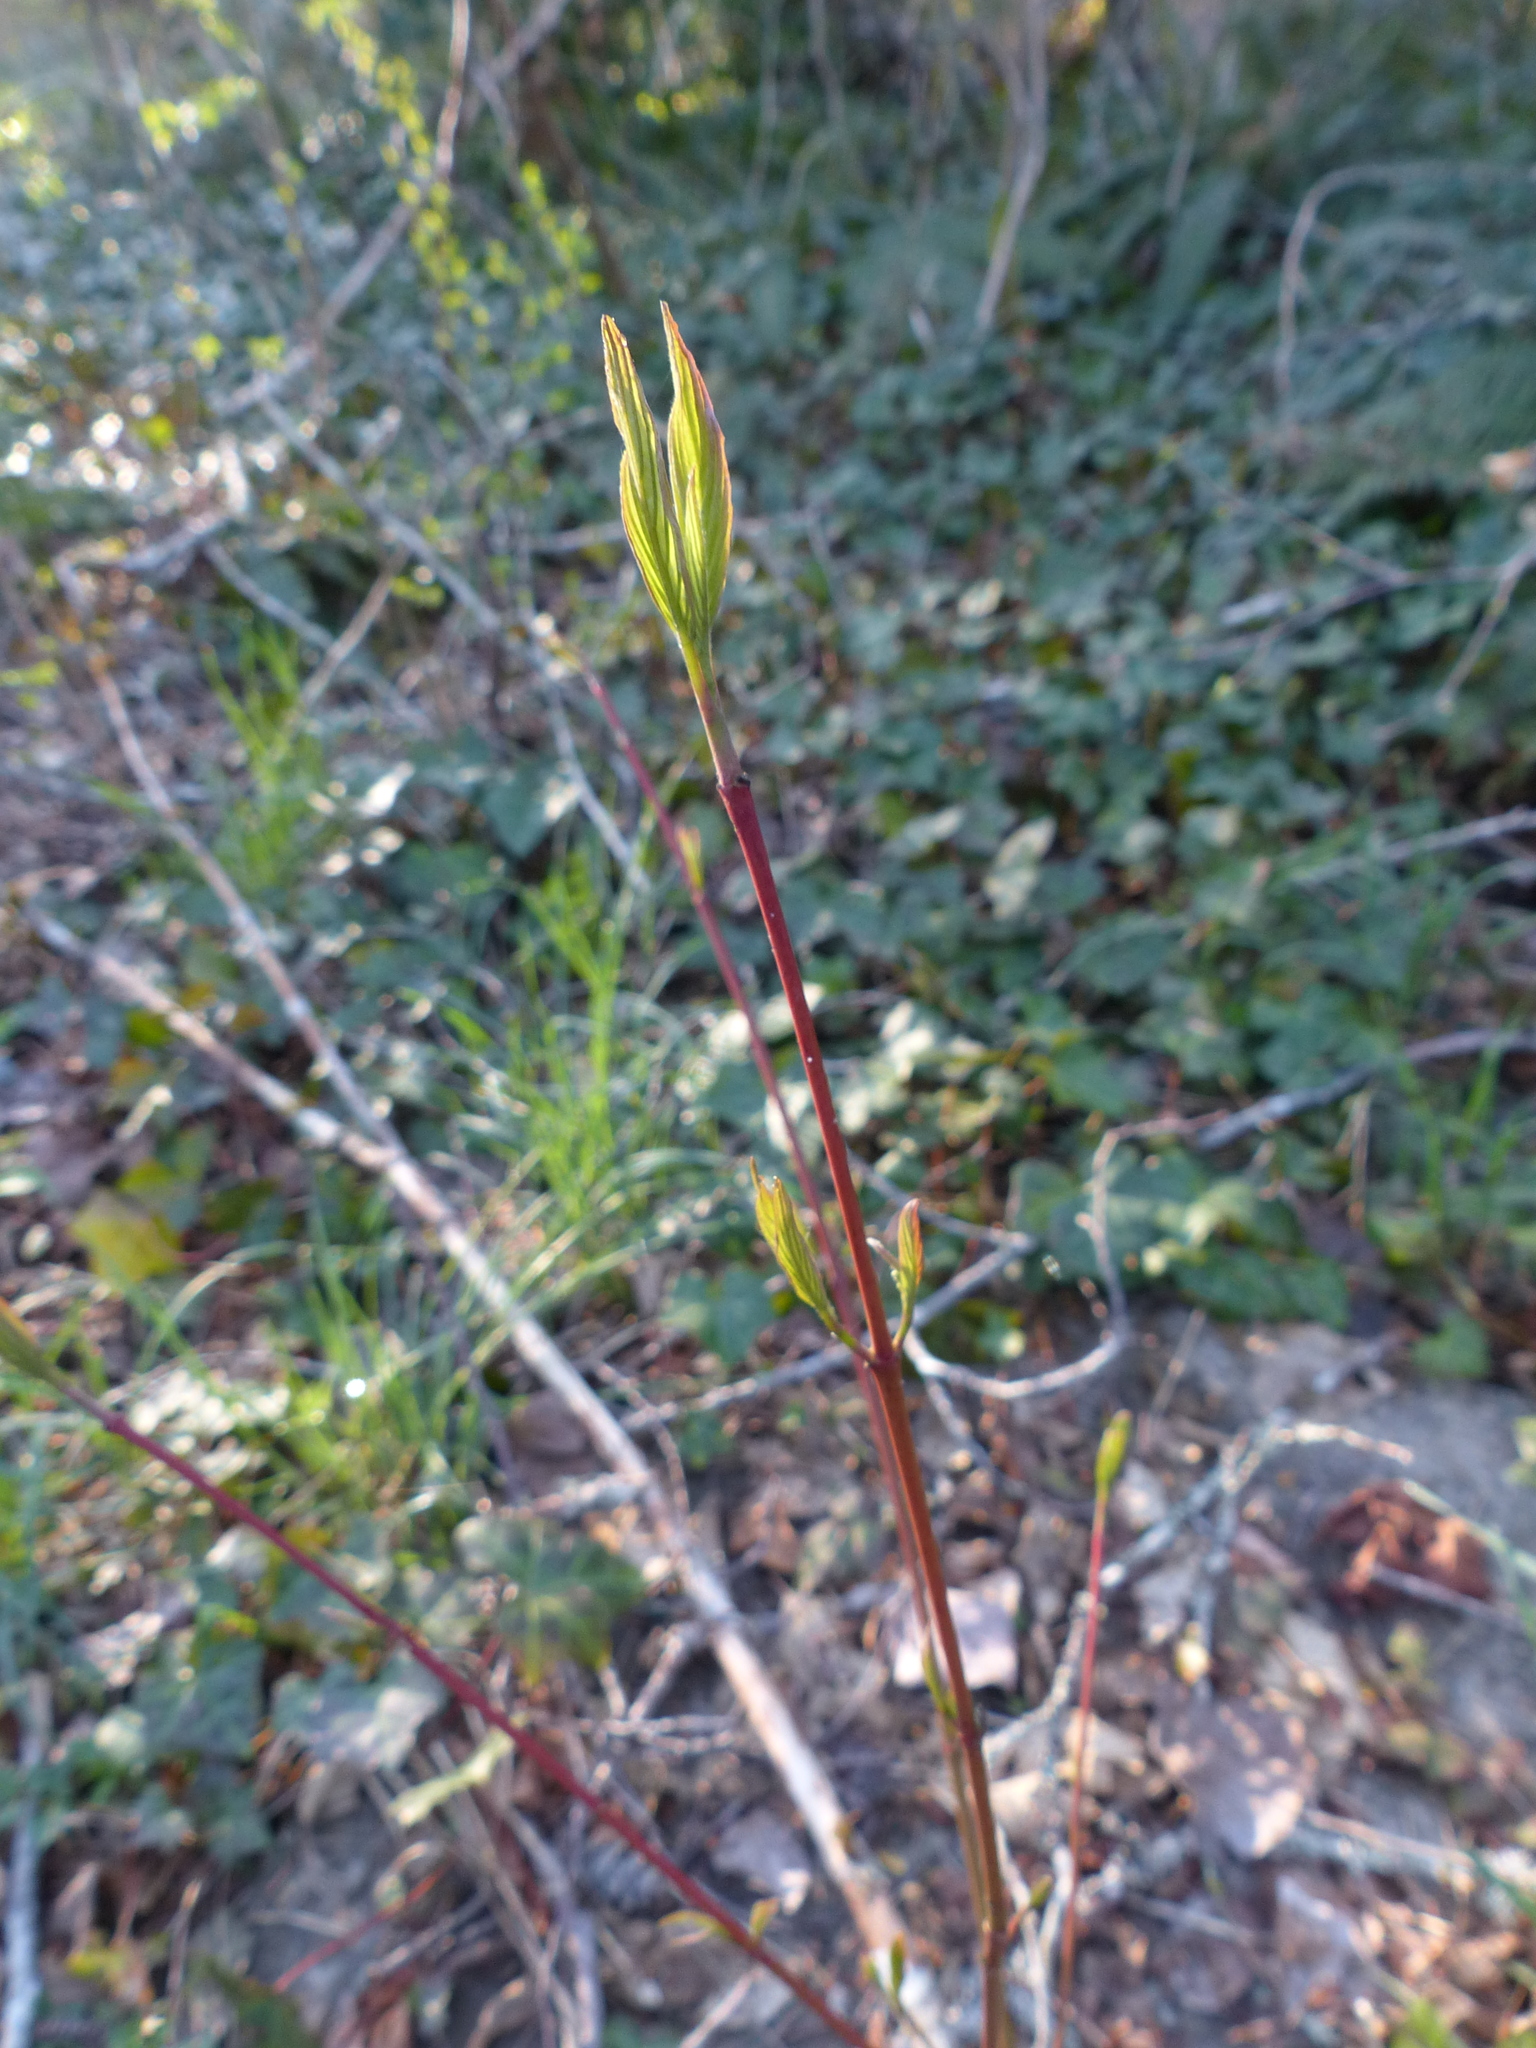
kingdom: Plantae
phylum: Tracheophyta
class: Magnoliopsida
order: Cornales
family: Cornaceae
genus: Cornus
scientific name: Cornus sericea
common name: Red-osier dogwood
